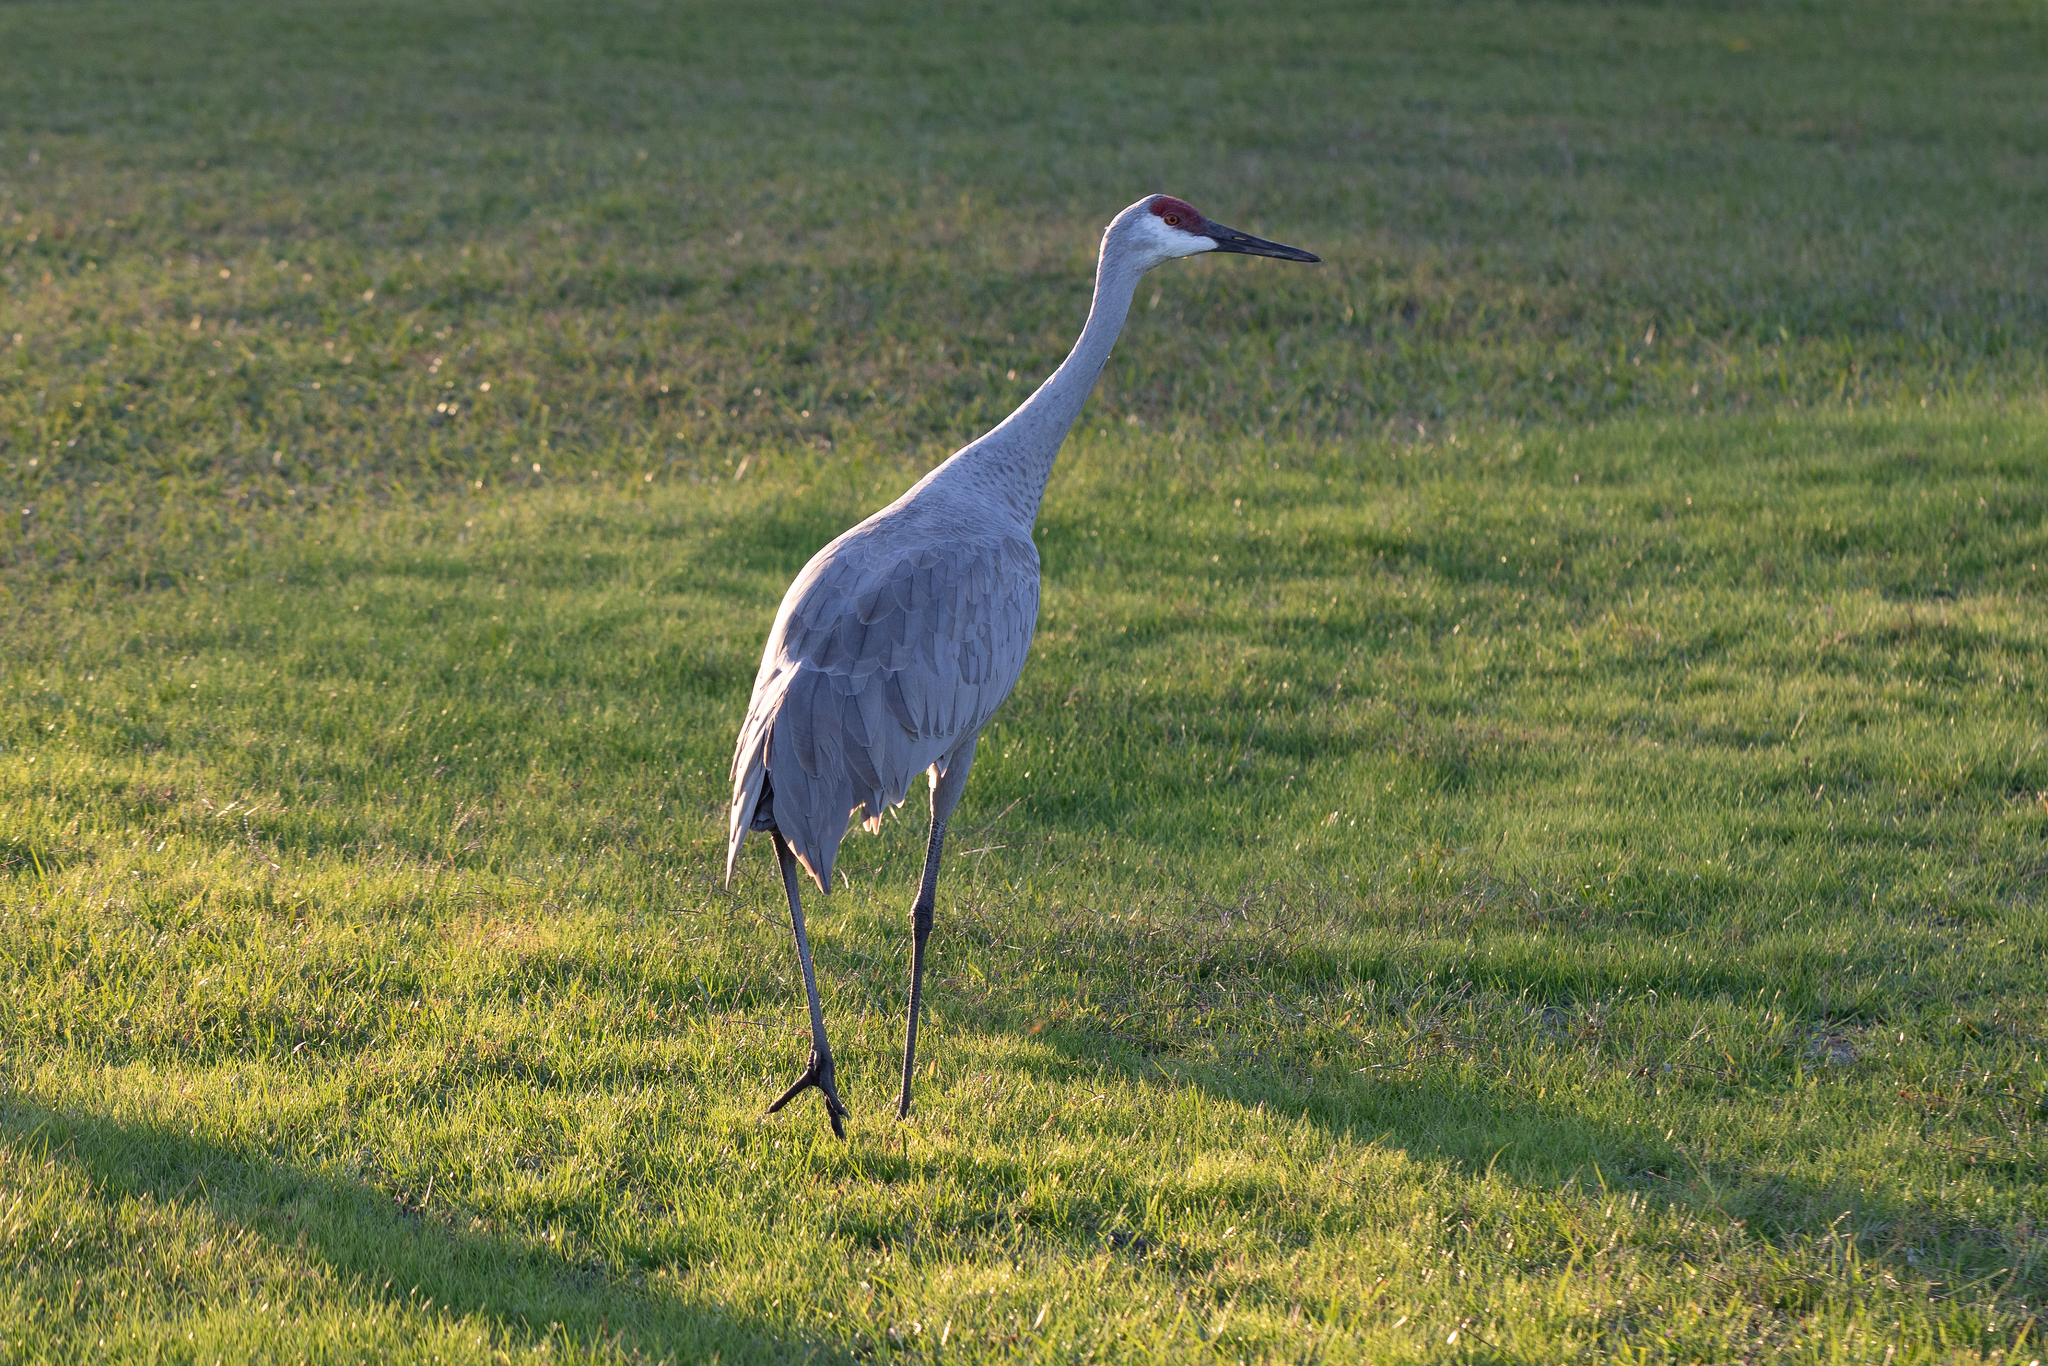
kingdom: Animalia
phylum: Chordata
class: Aves
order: Gruiformes
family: Gruidae
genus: Grus
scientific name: Grus canadensis
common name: Sandhill crane
